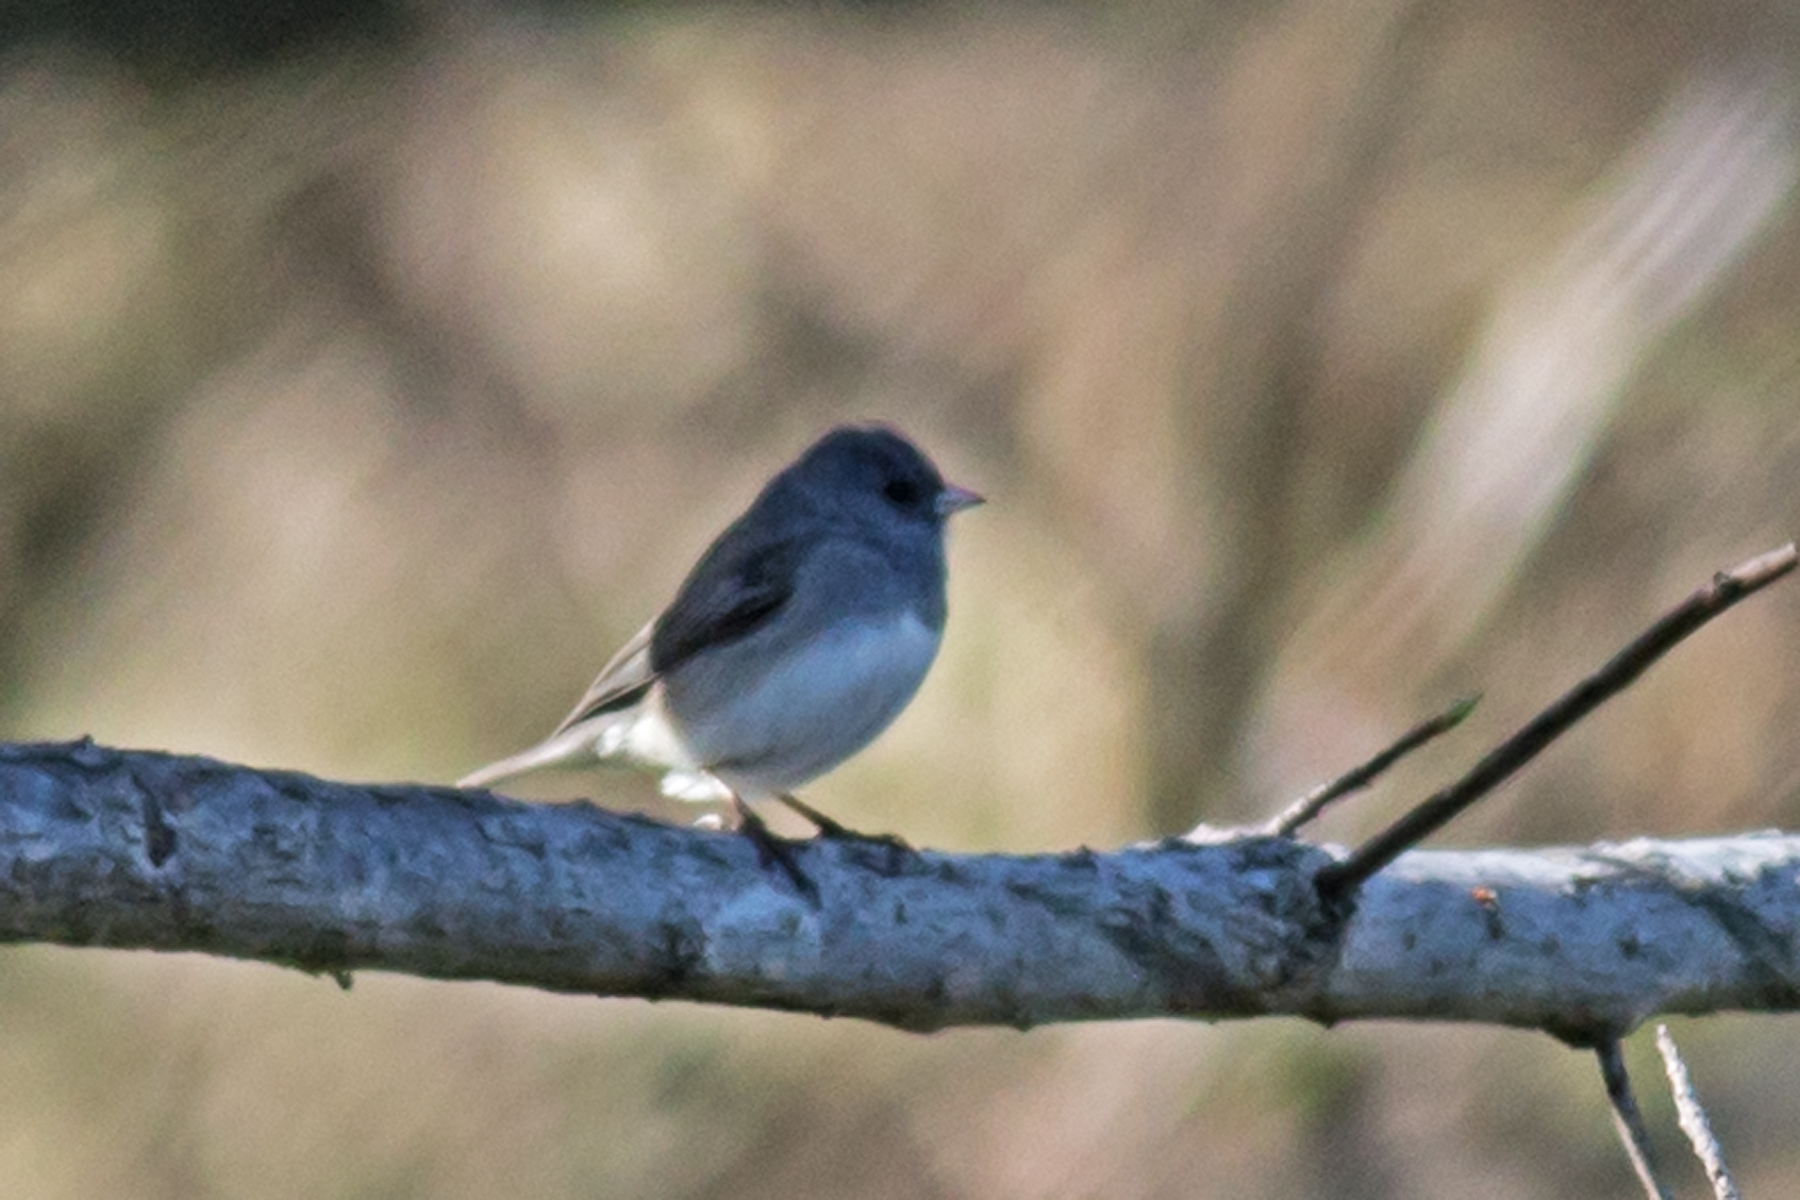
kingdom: Animalia
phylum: Chordata
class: Aves
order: Passeriformes
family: Passerellidae
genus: Junco
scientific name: Junco hyemalis
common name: Dark-eyed junco
